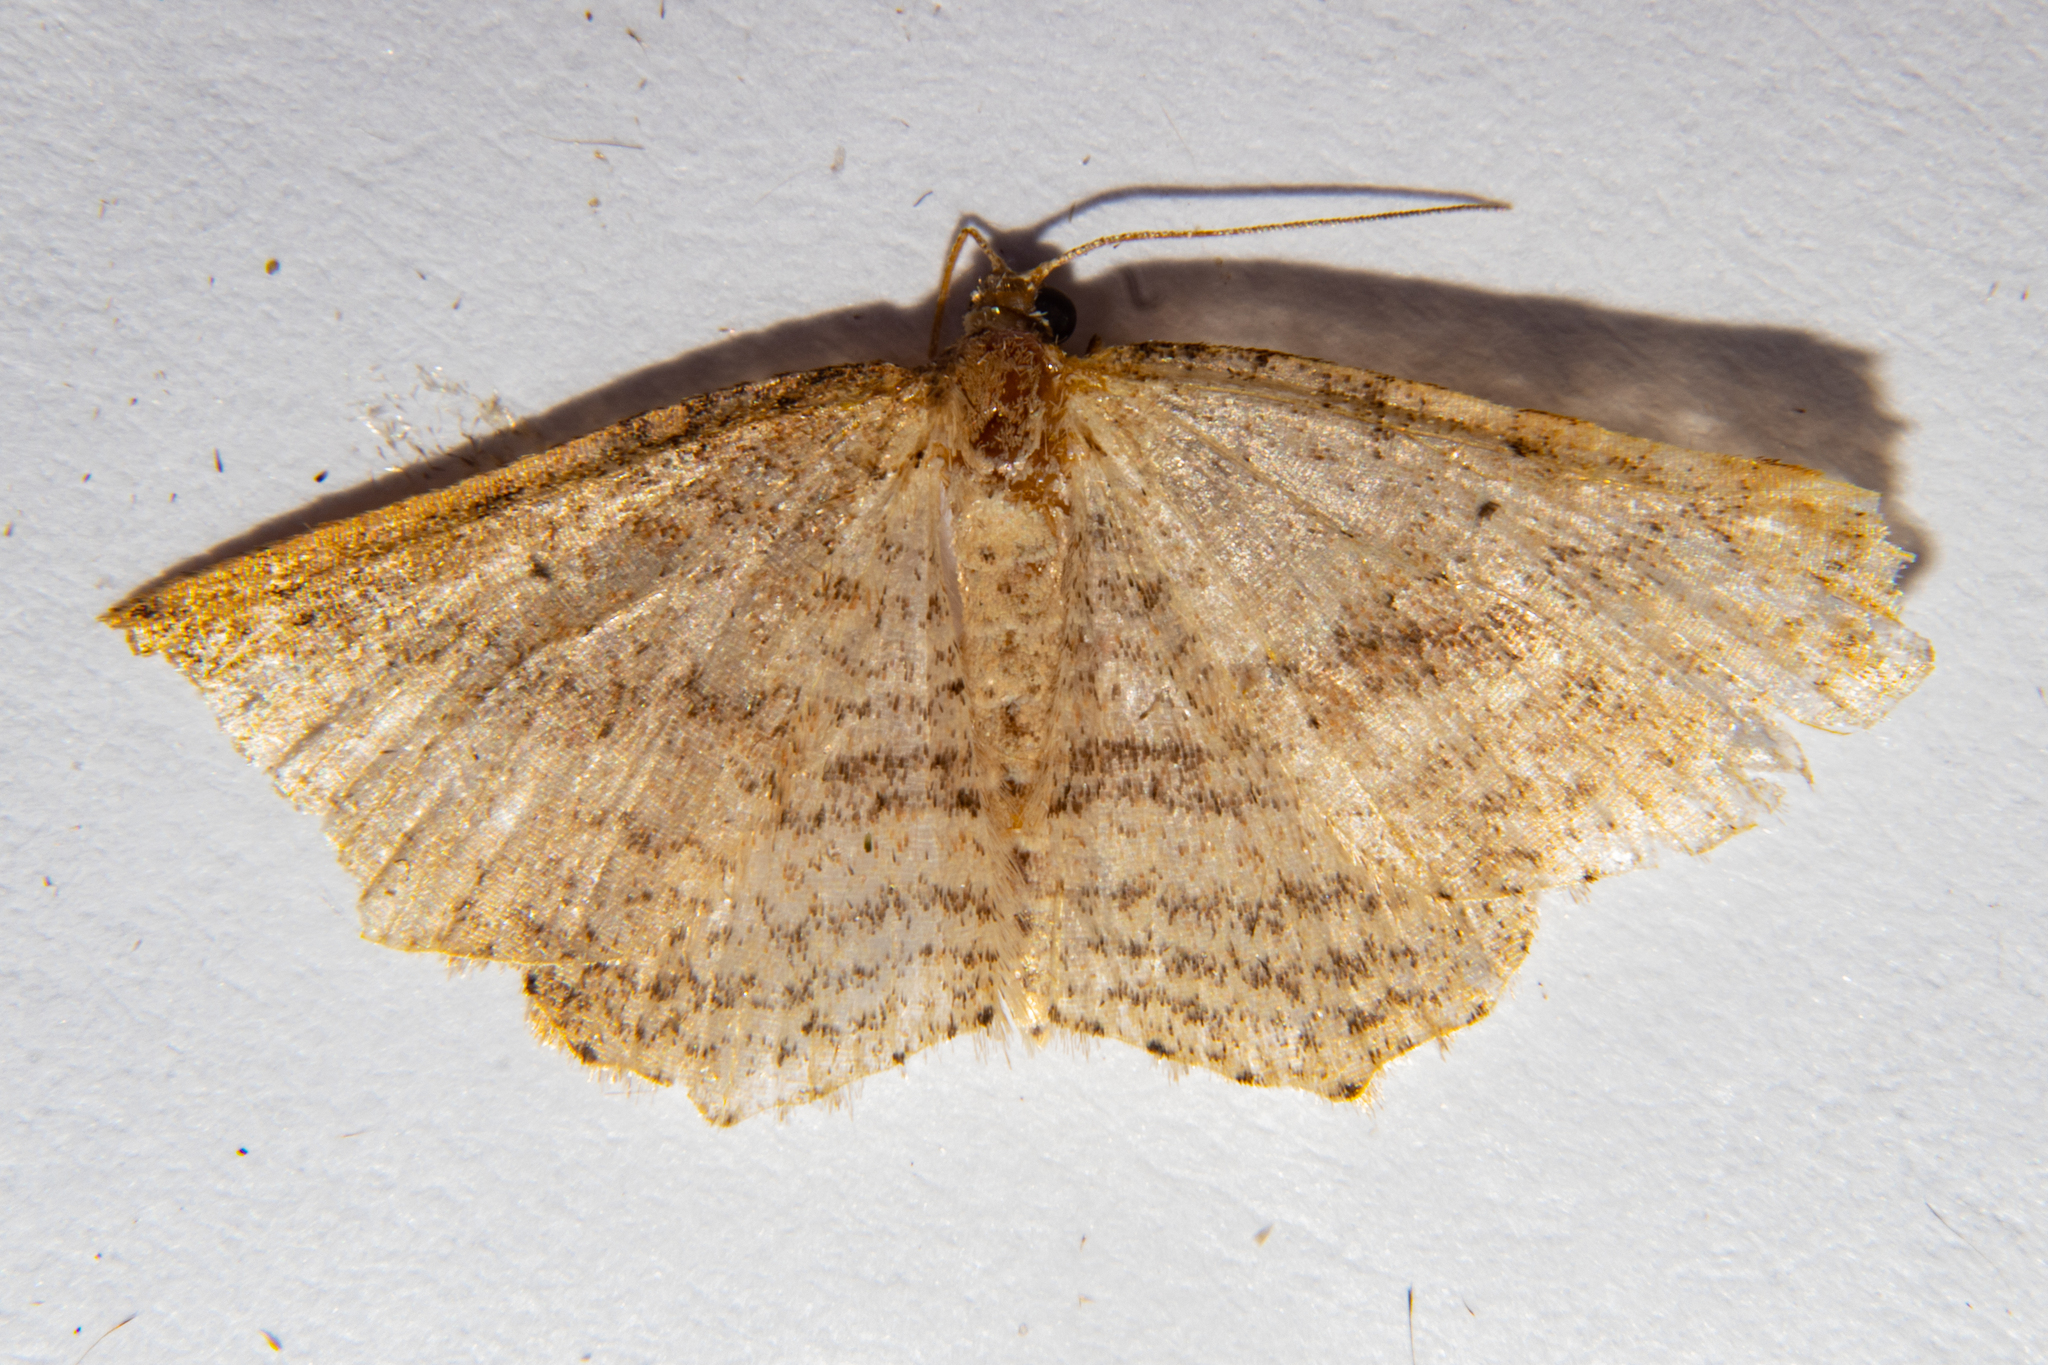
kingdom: Animalia
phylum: Arthropoda
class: Insecta
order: Lepidoptera
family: Geometridae
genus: Epicyme
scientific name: Epicyme rubropunctaria
